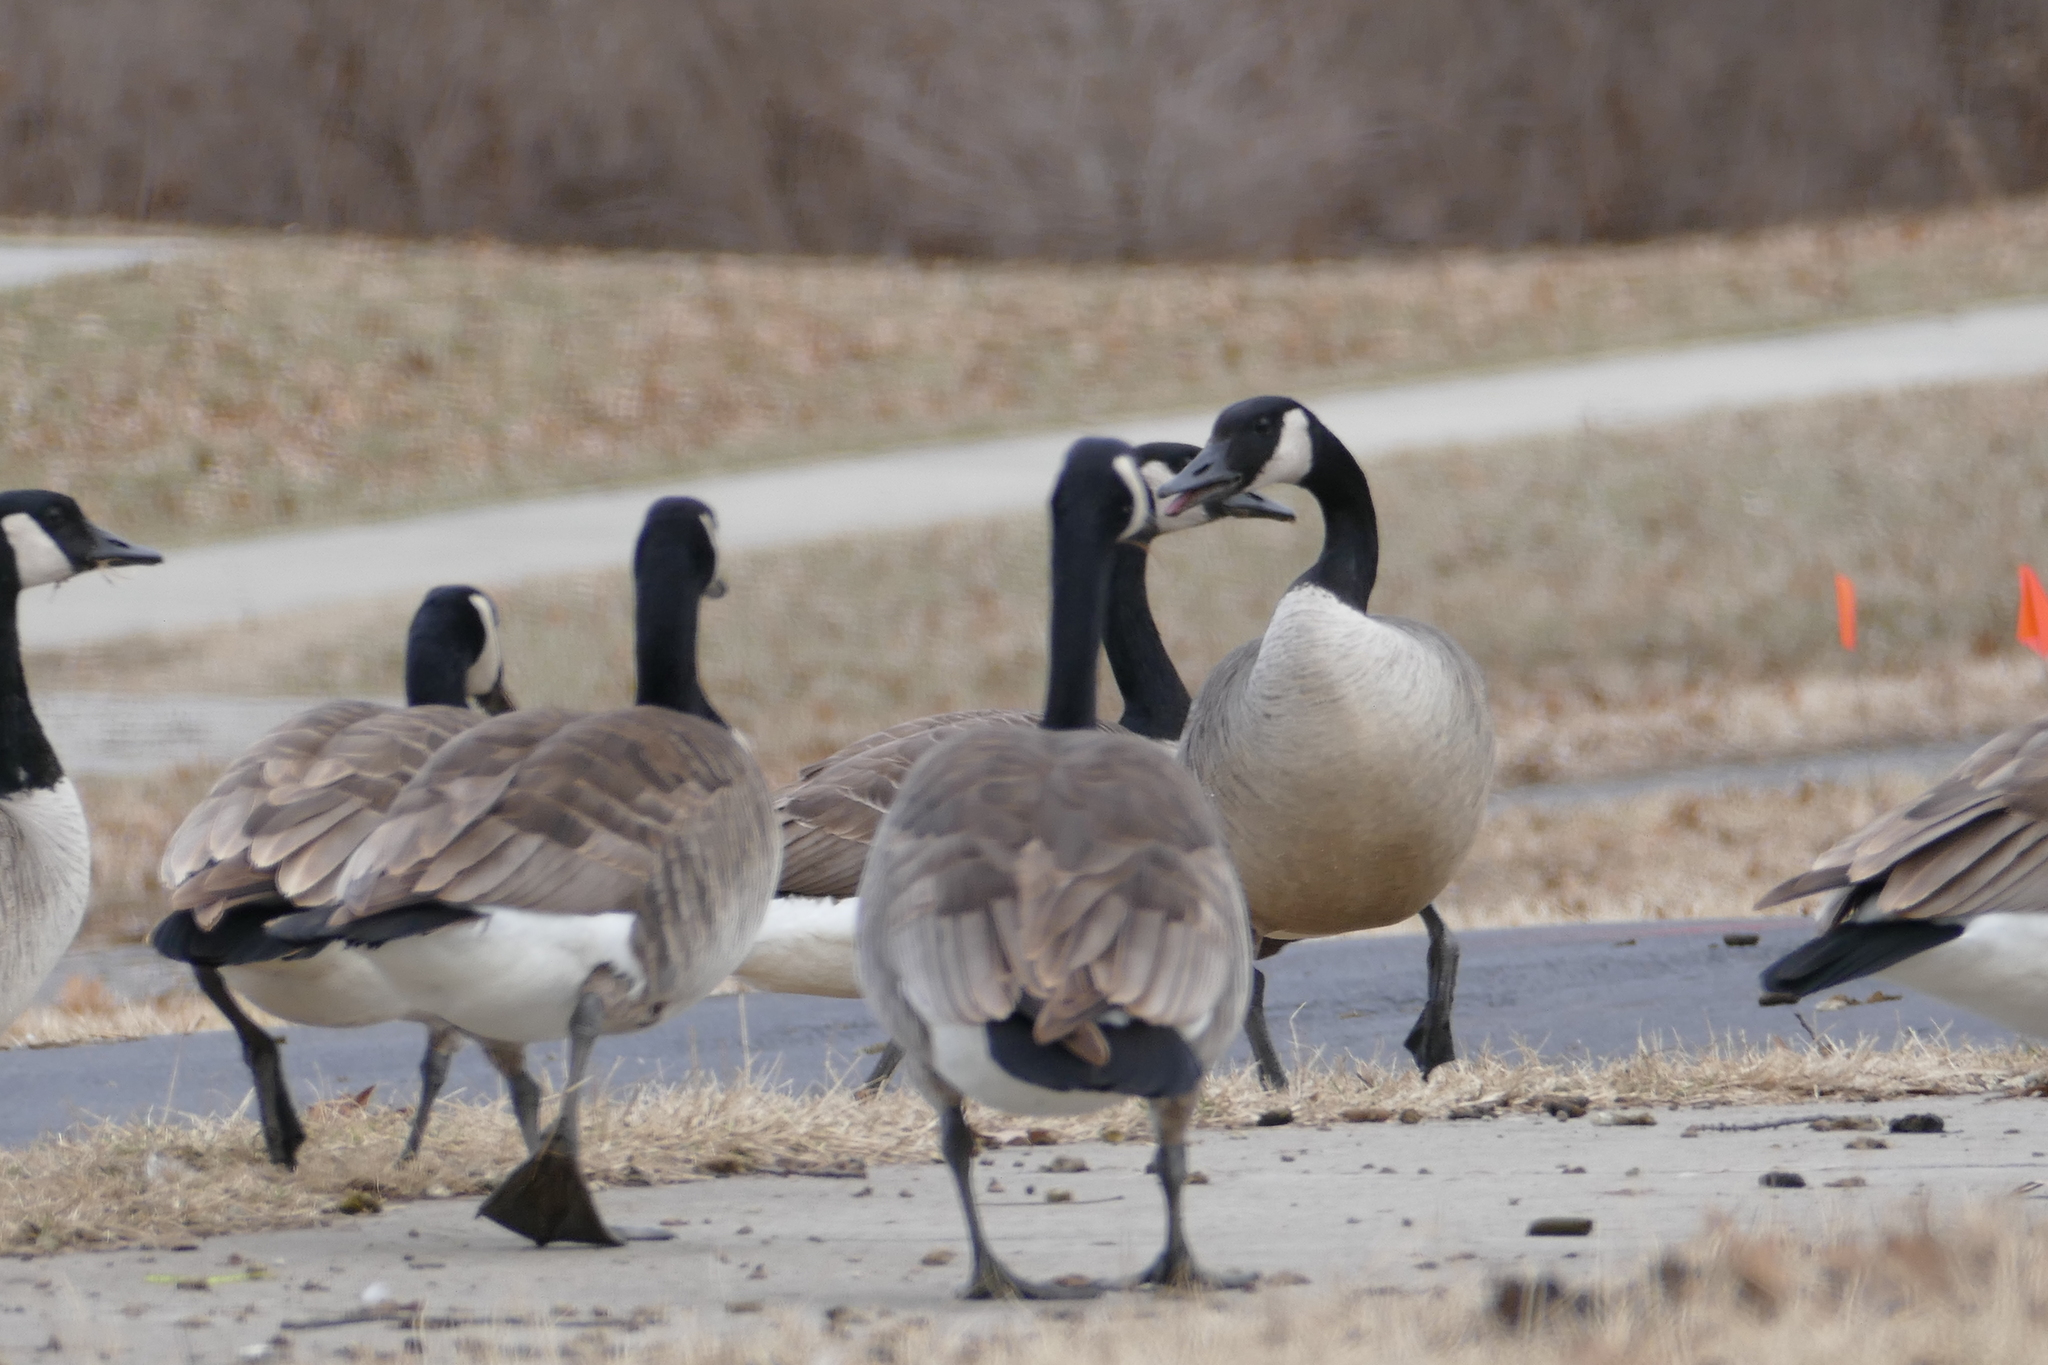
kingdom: Animalia
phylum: Chordata
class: Aves
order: Anseriformes
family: Anatidae
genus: Branta
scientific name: Branta canadensis
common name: Canada goose
